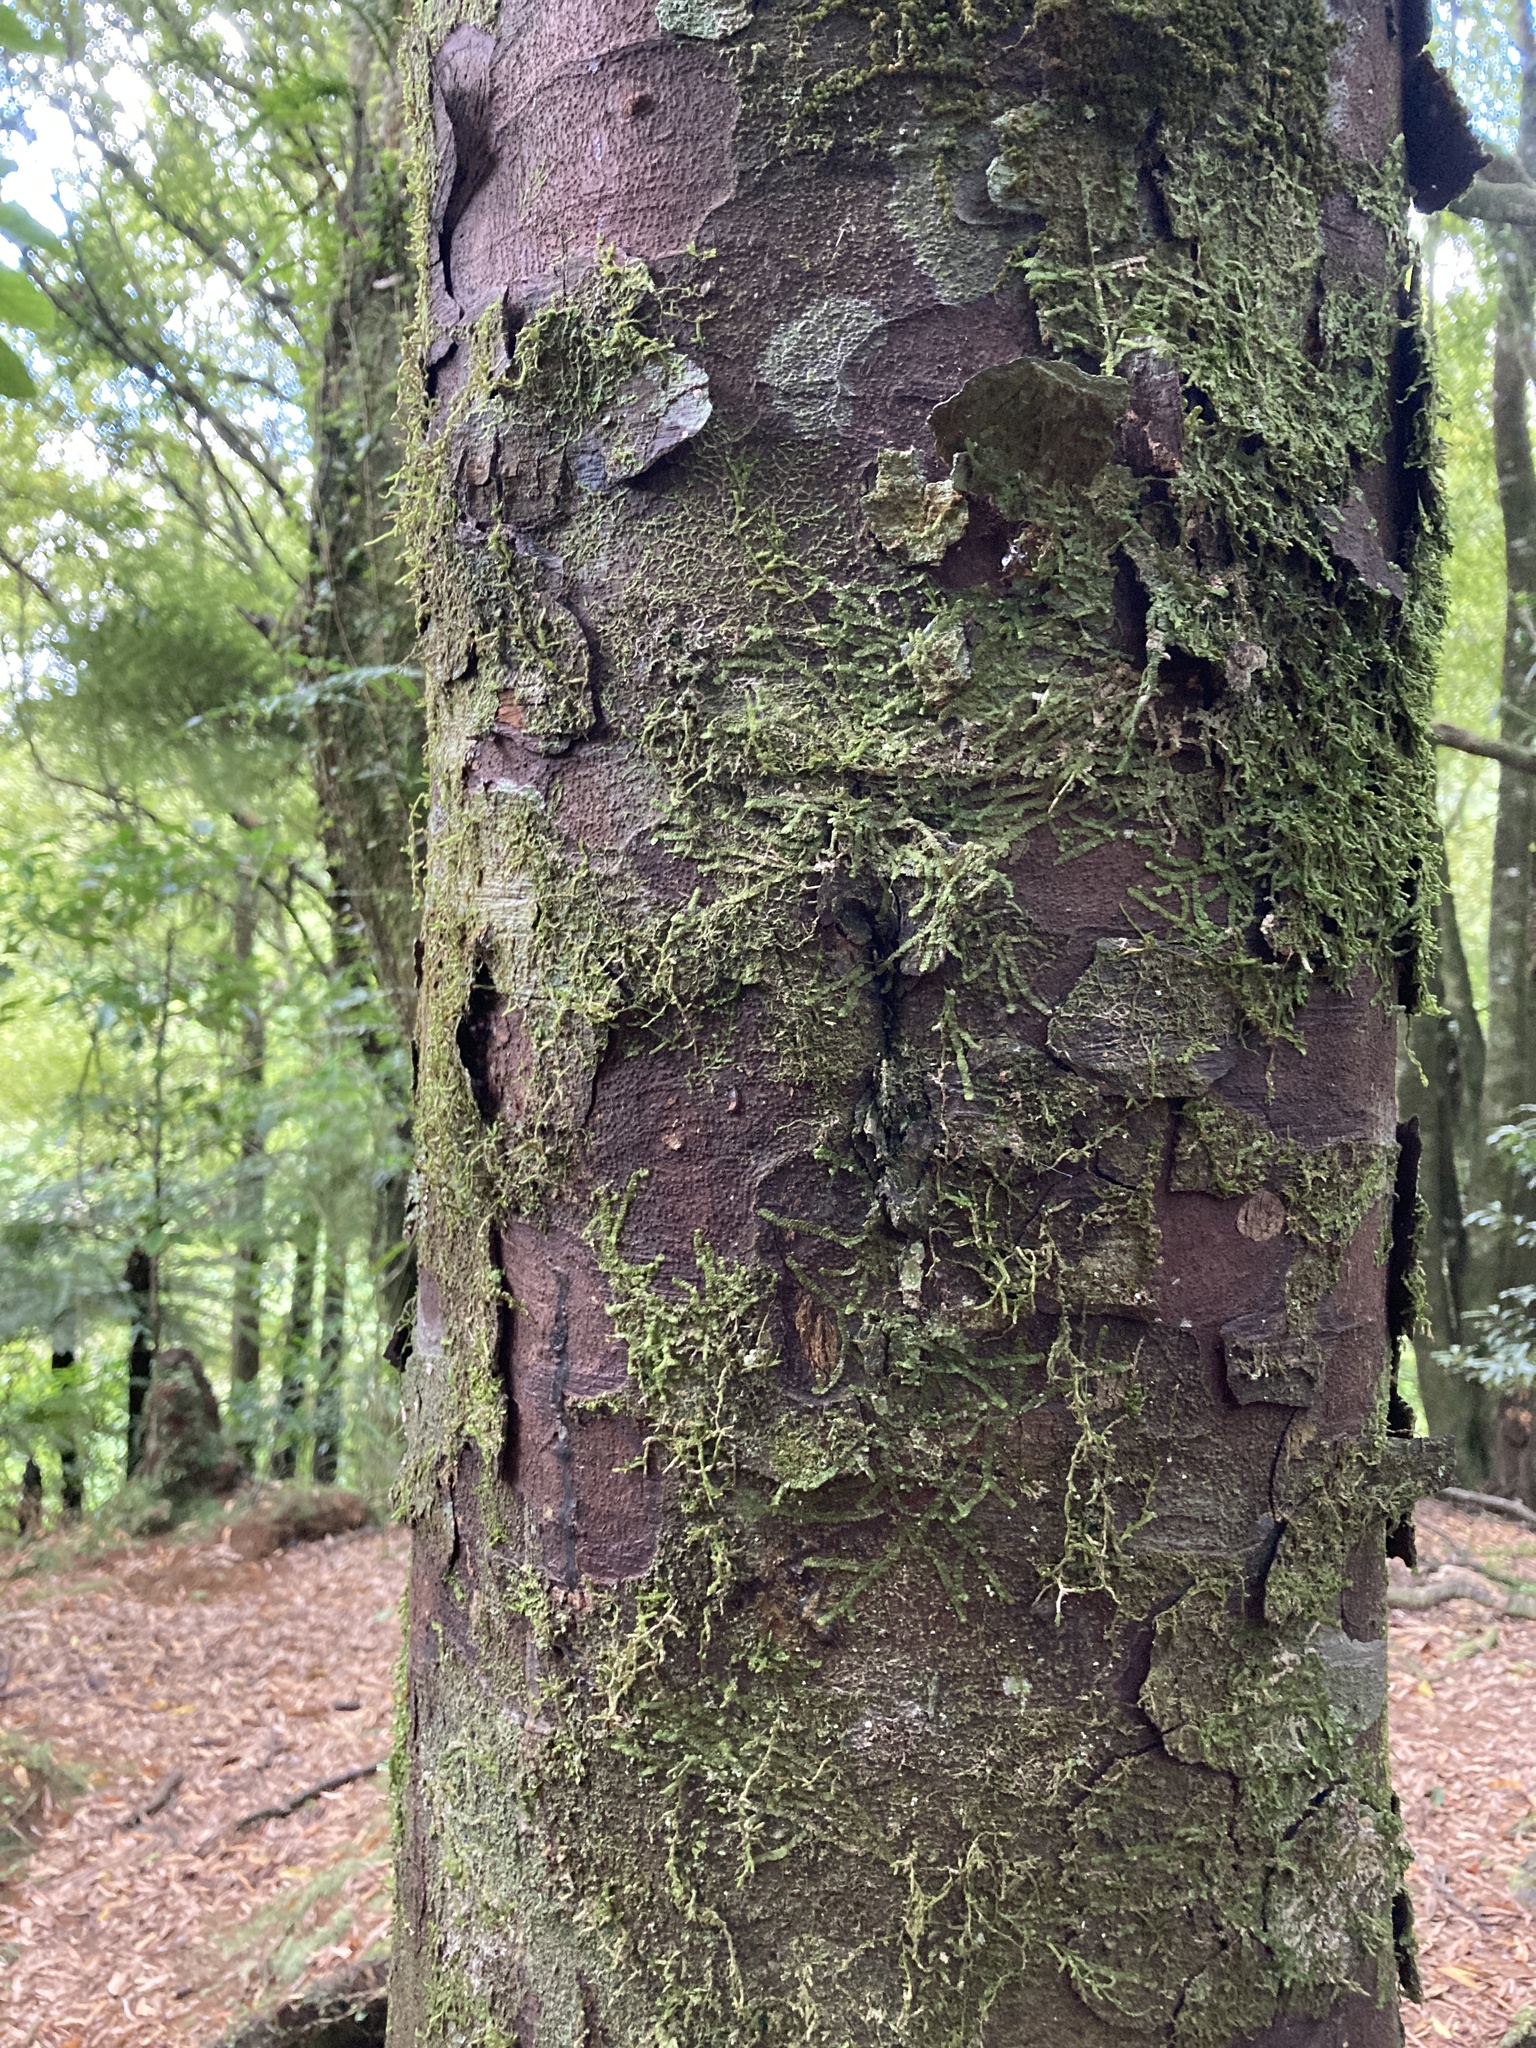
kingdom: Plantae
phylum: Tracheophyta
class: Pinopsida
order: Pinales
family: Podocarpaceae
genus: Prumnopitys
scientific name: Prumnopitys ferruginea
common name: Brown pine
